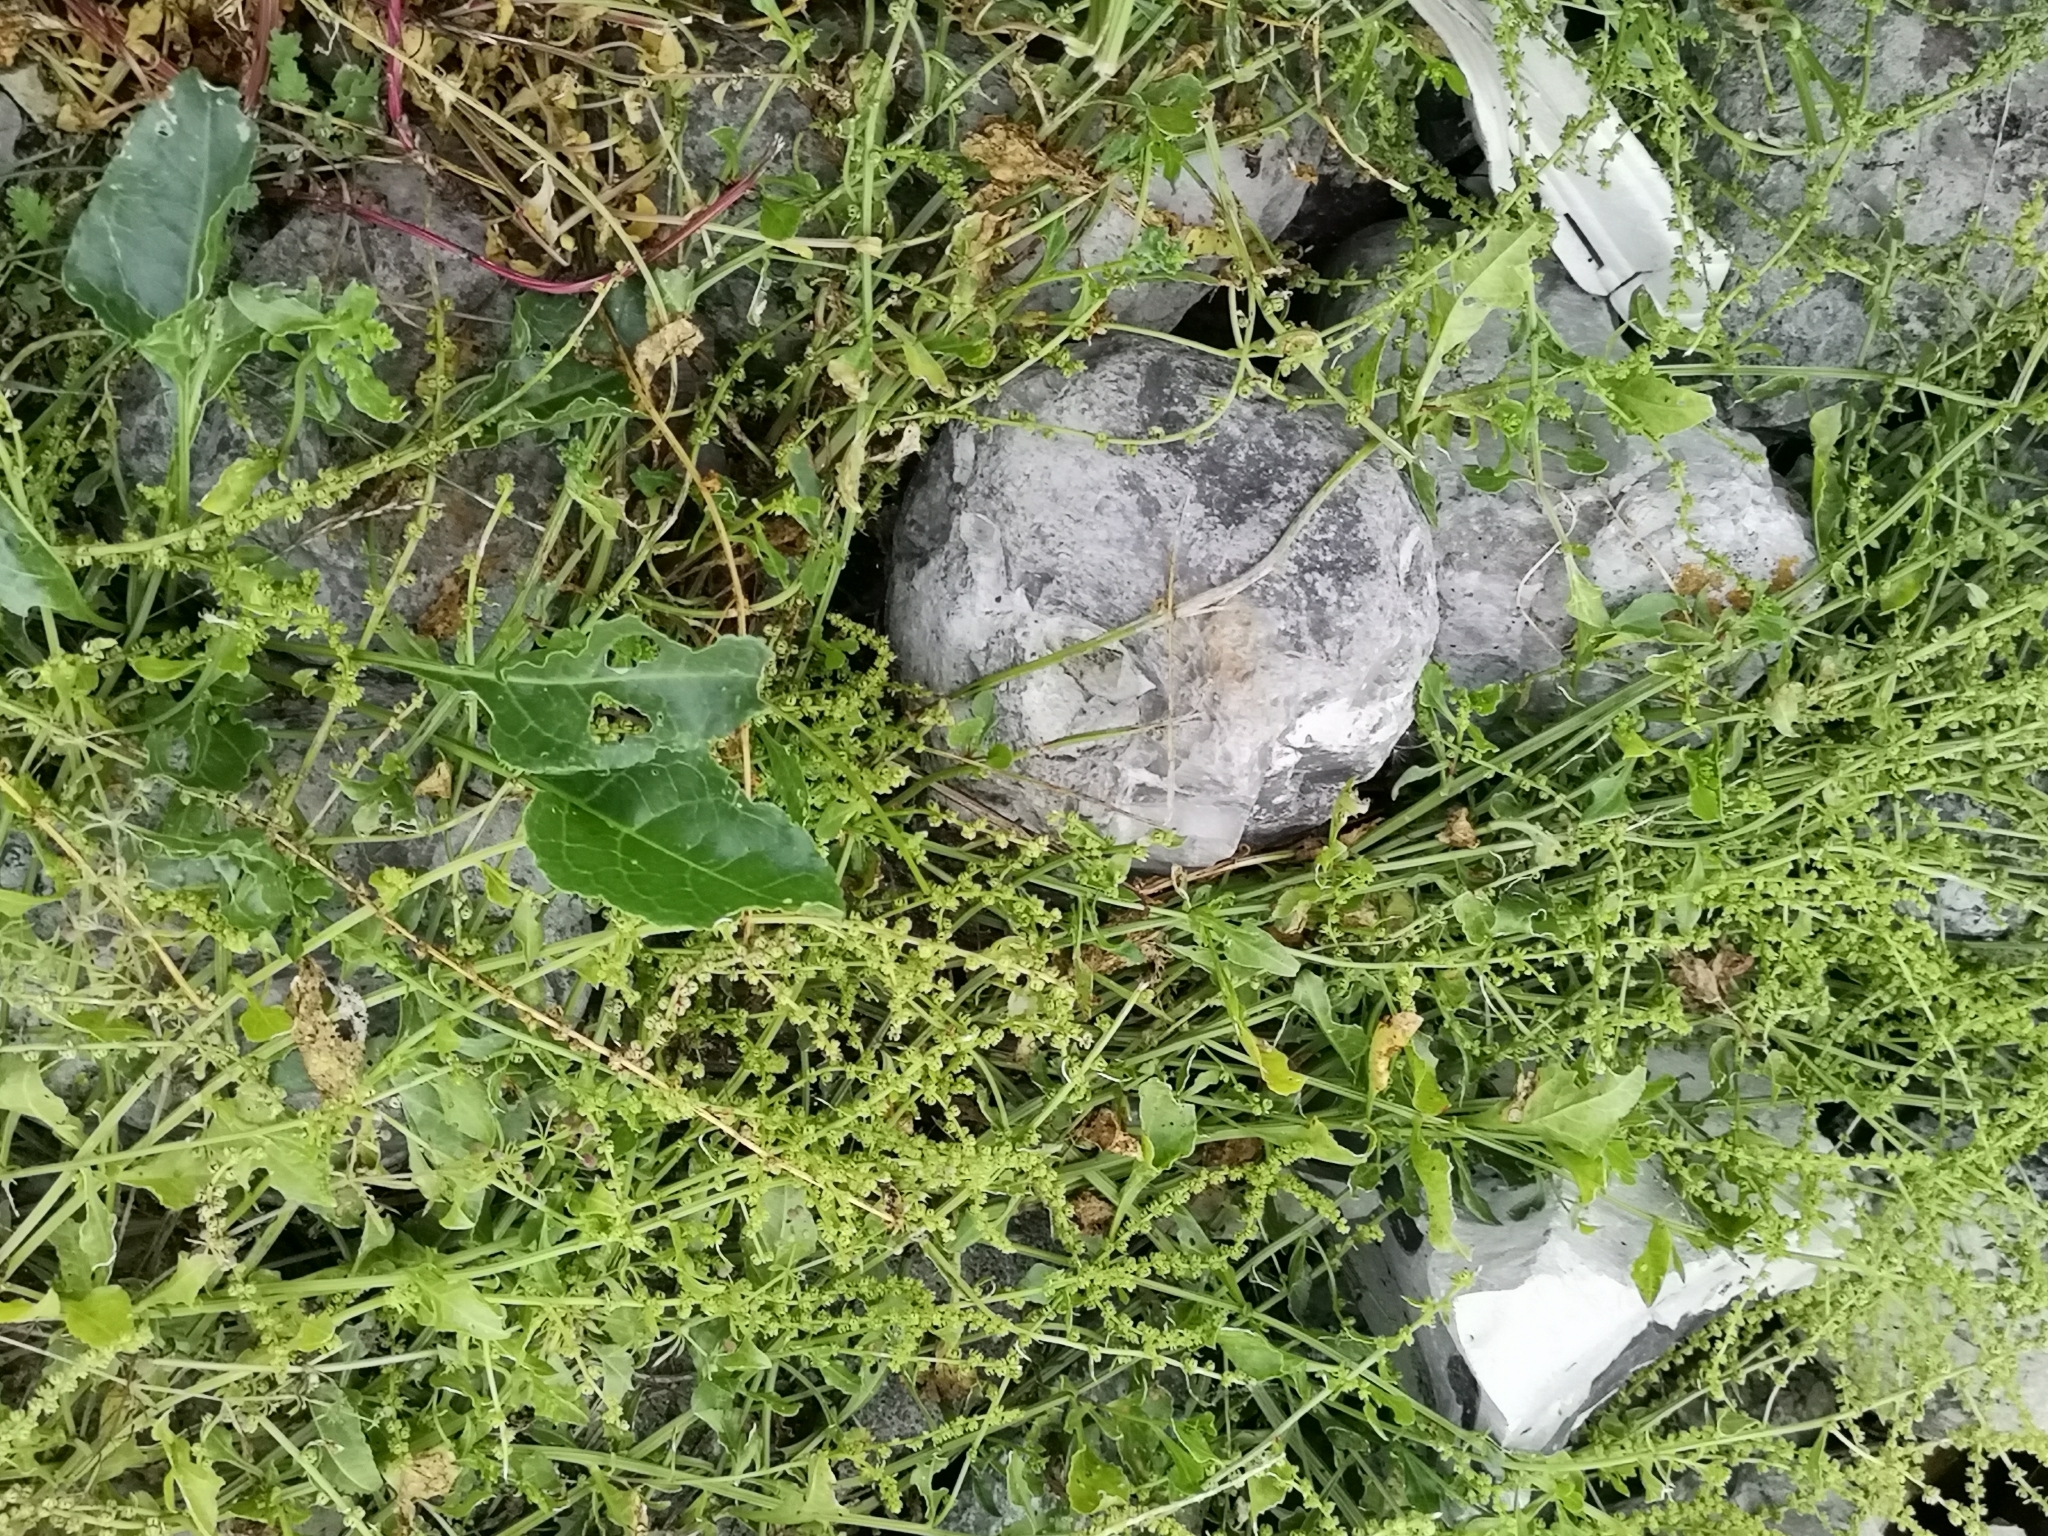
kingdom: Plantae
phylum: Tracheophyta
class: Magnoliopsida
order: Caryophyllales
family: Amaranthaceae
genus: Beta
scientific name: Beta vulgaris
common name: Beet
